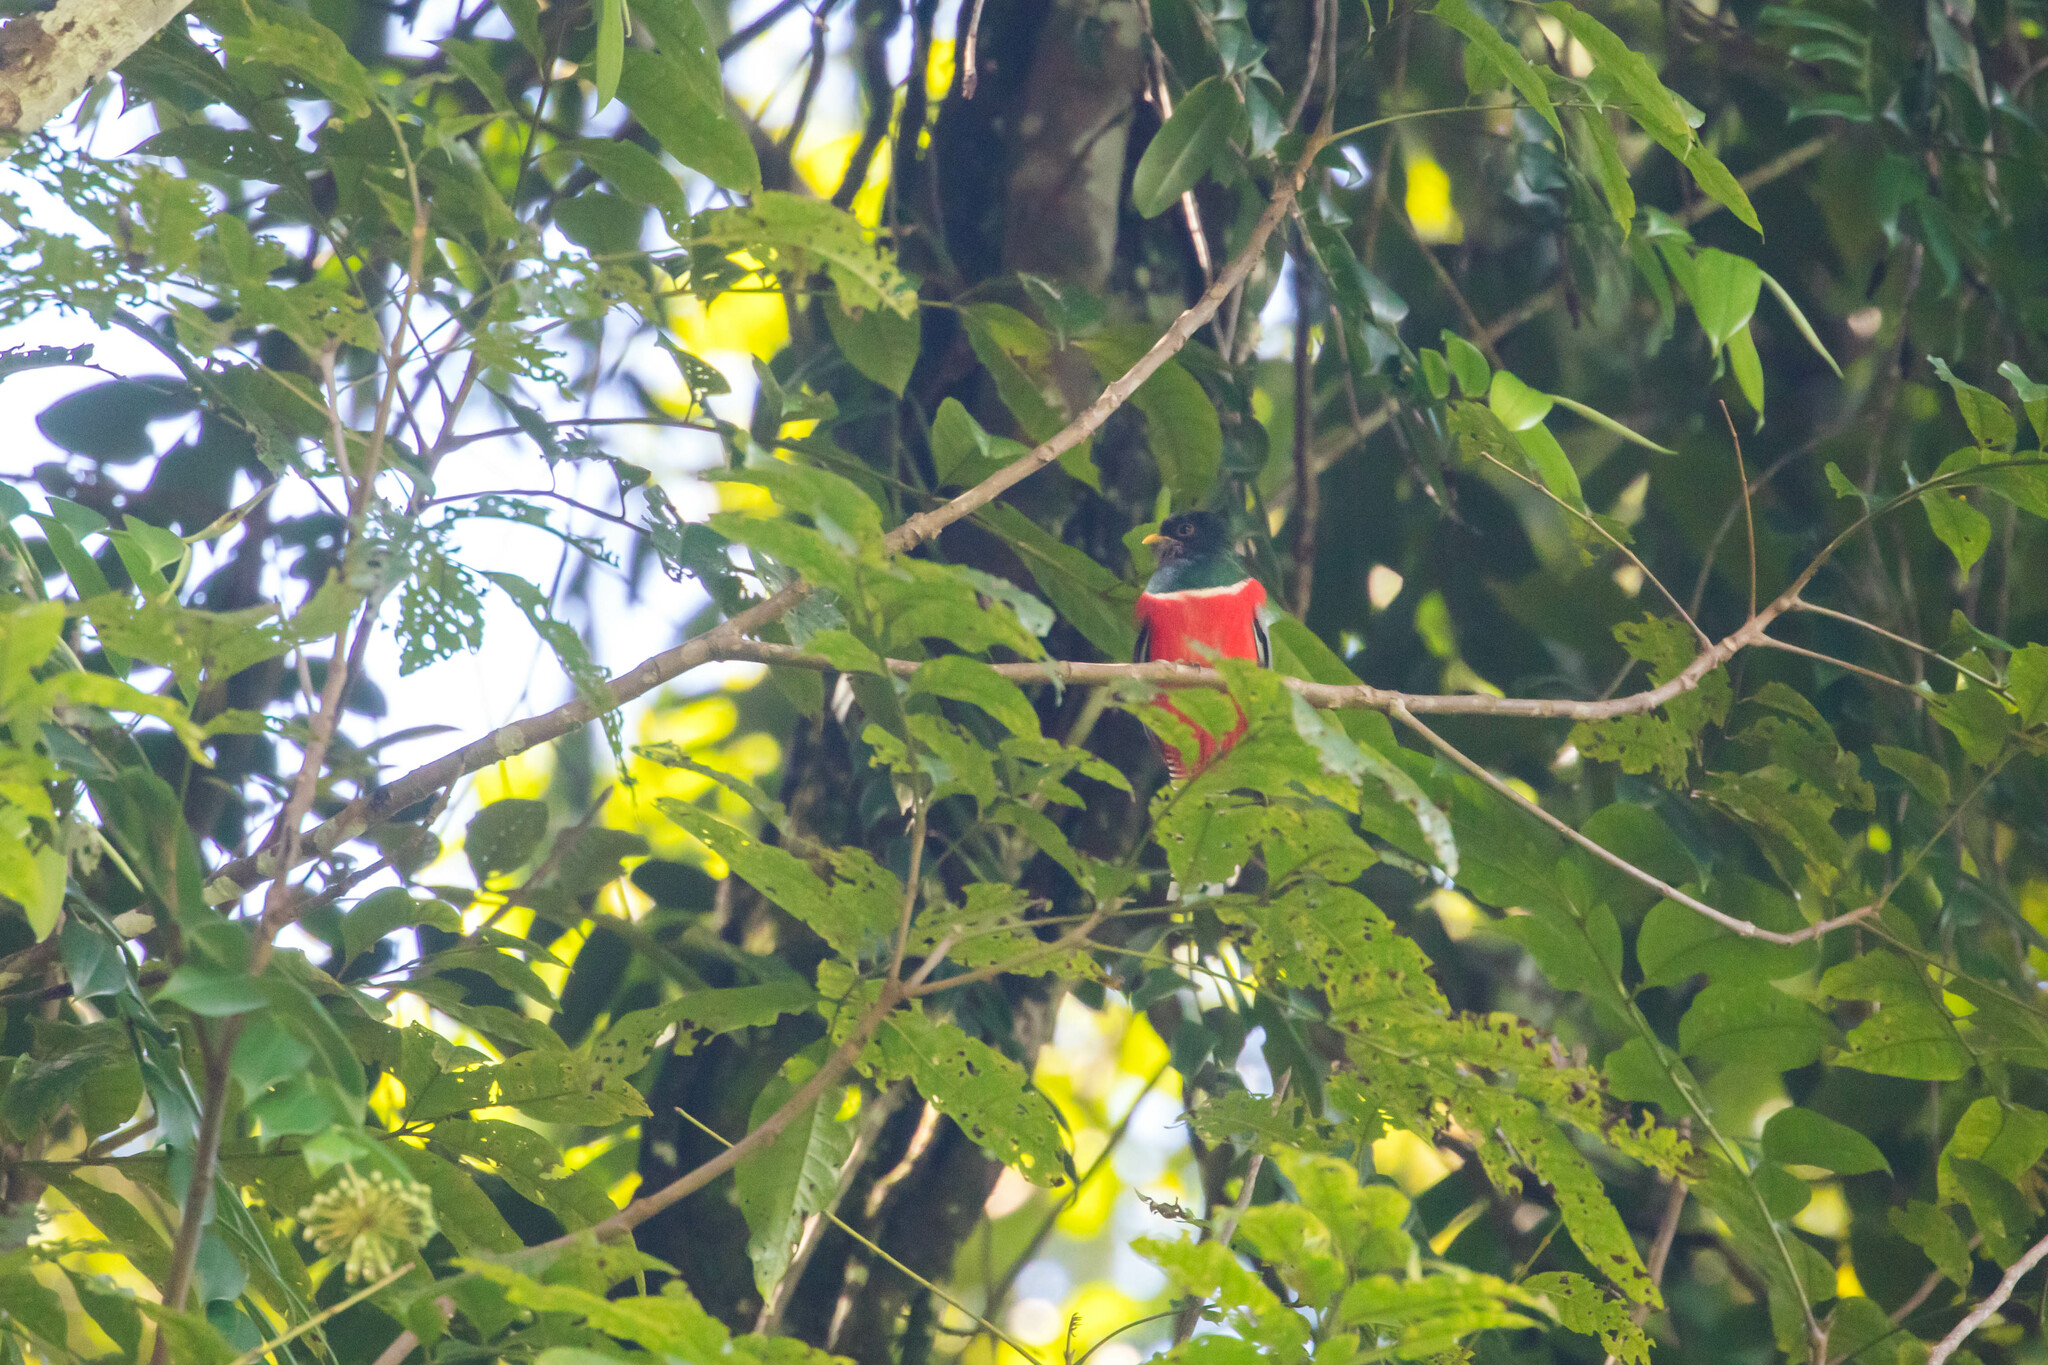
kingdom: Animalia
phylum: Chordata
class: Aves
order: Trogoniformes
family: Trogonidae
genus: Trogon
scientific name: Trogon collaris
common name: Collared trogon
